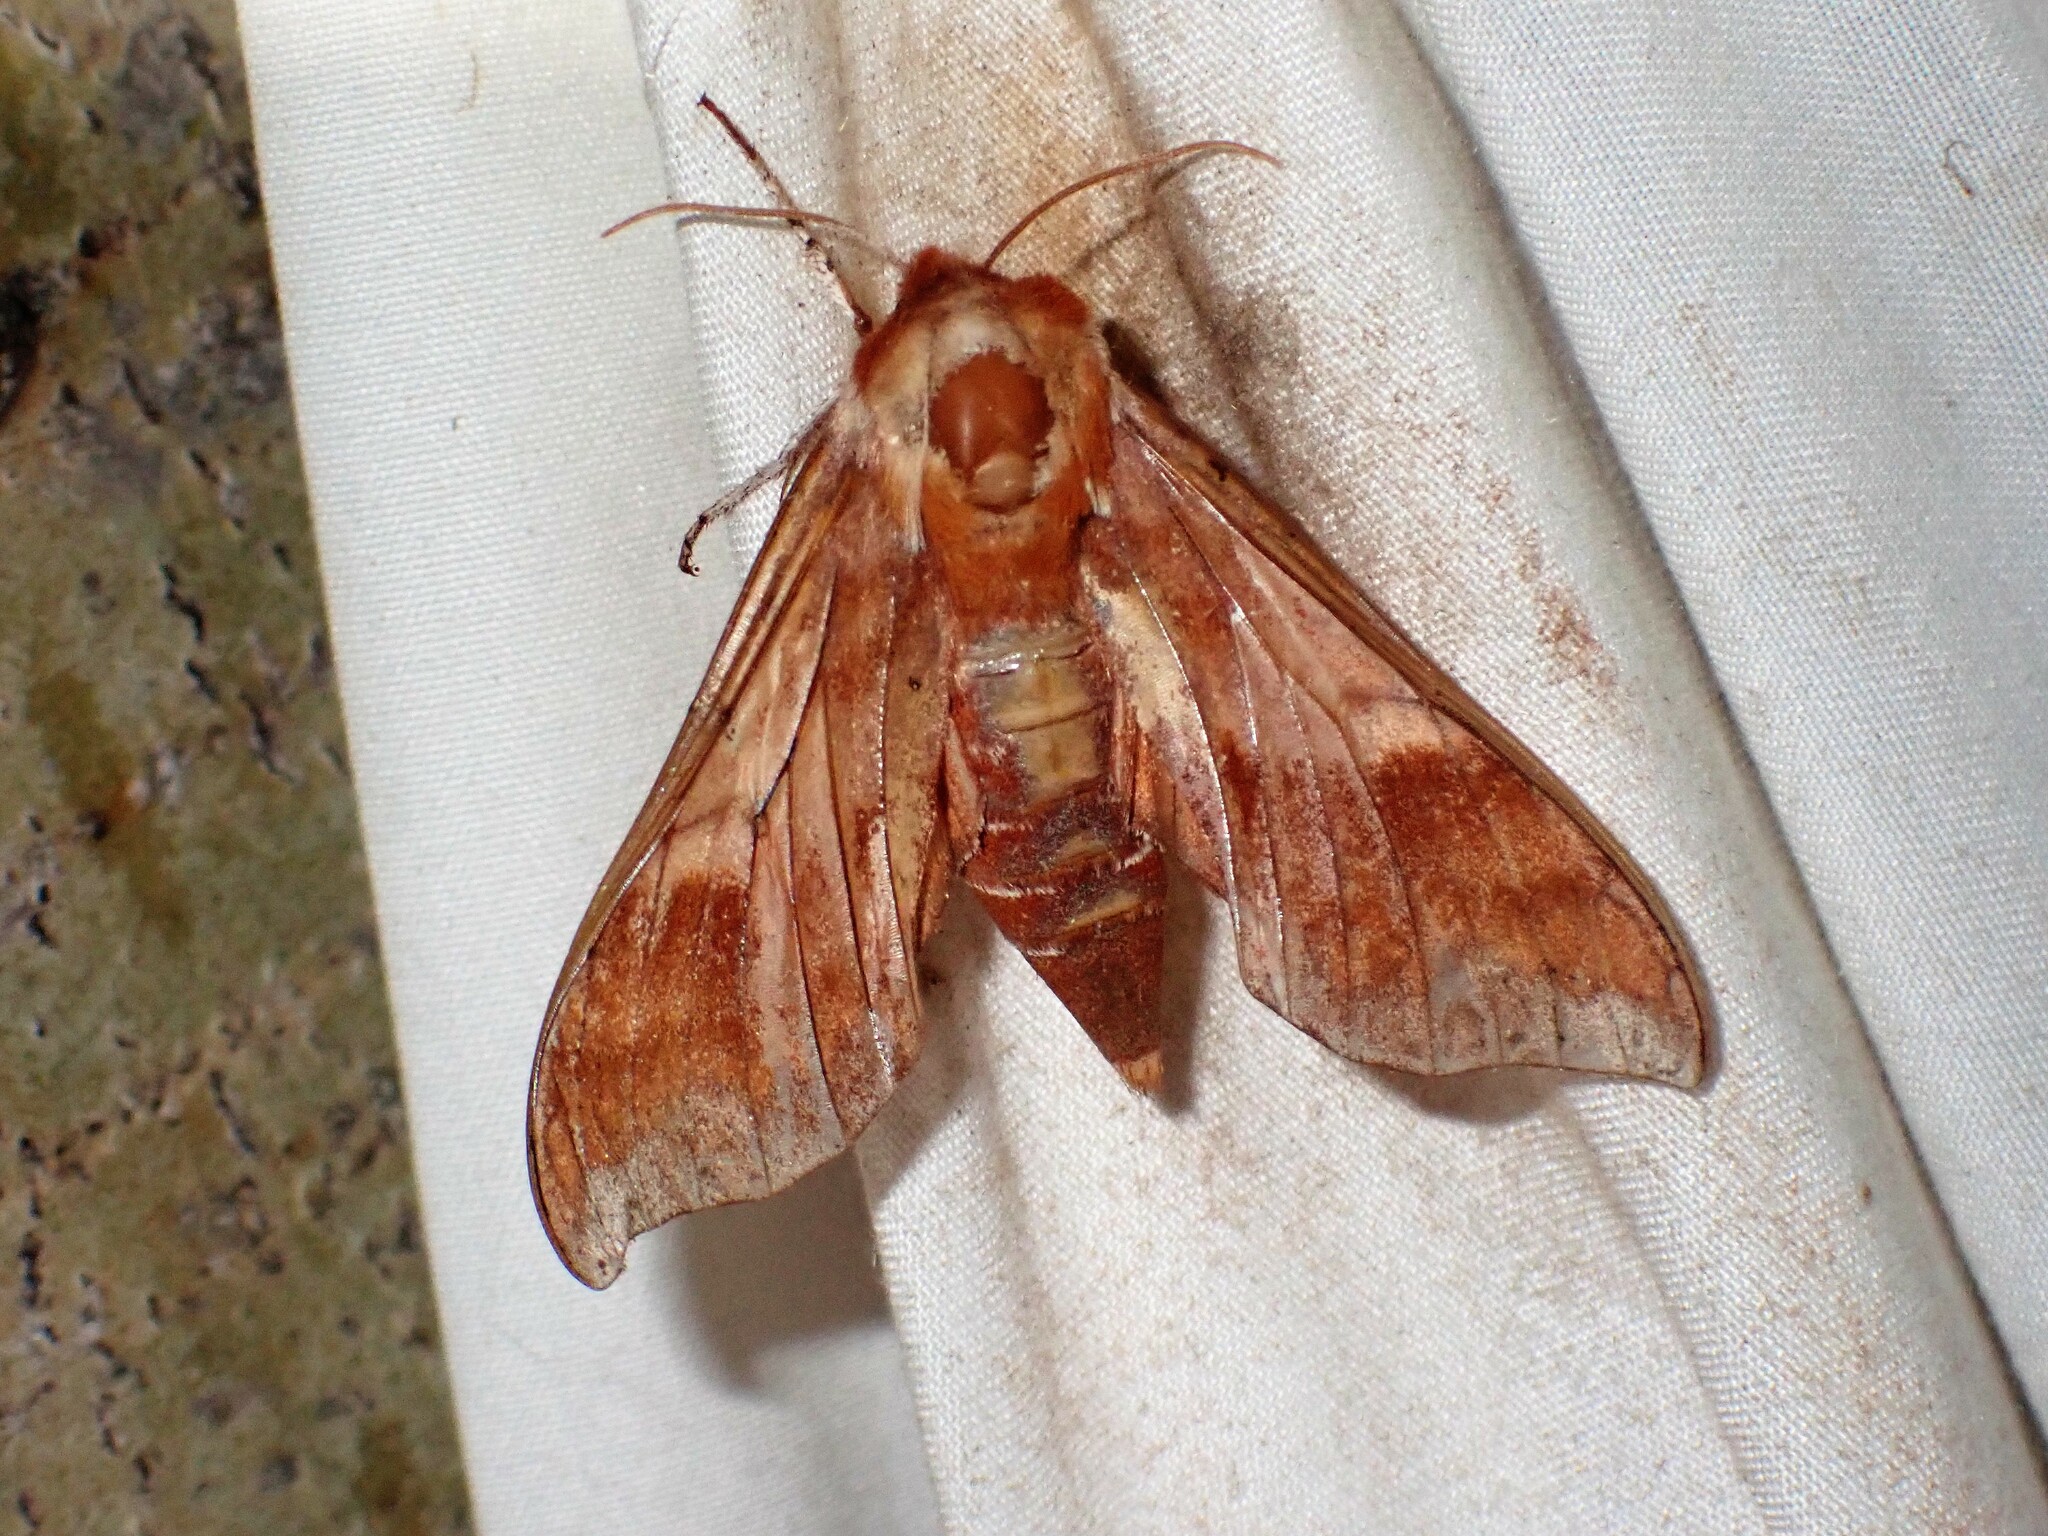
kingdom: Animalia
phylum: Arthropoda
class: Insecta
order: Lepidoptera
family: Sphingidae
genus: Darapsa
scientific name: Darapsa choerilus
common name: Azalea sphinx
